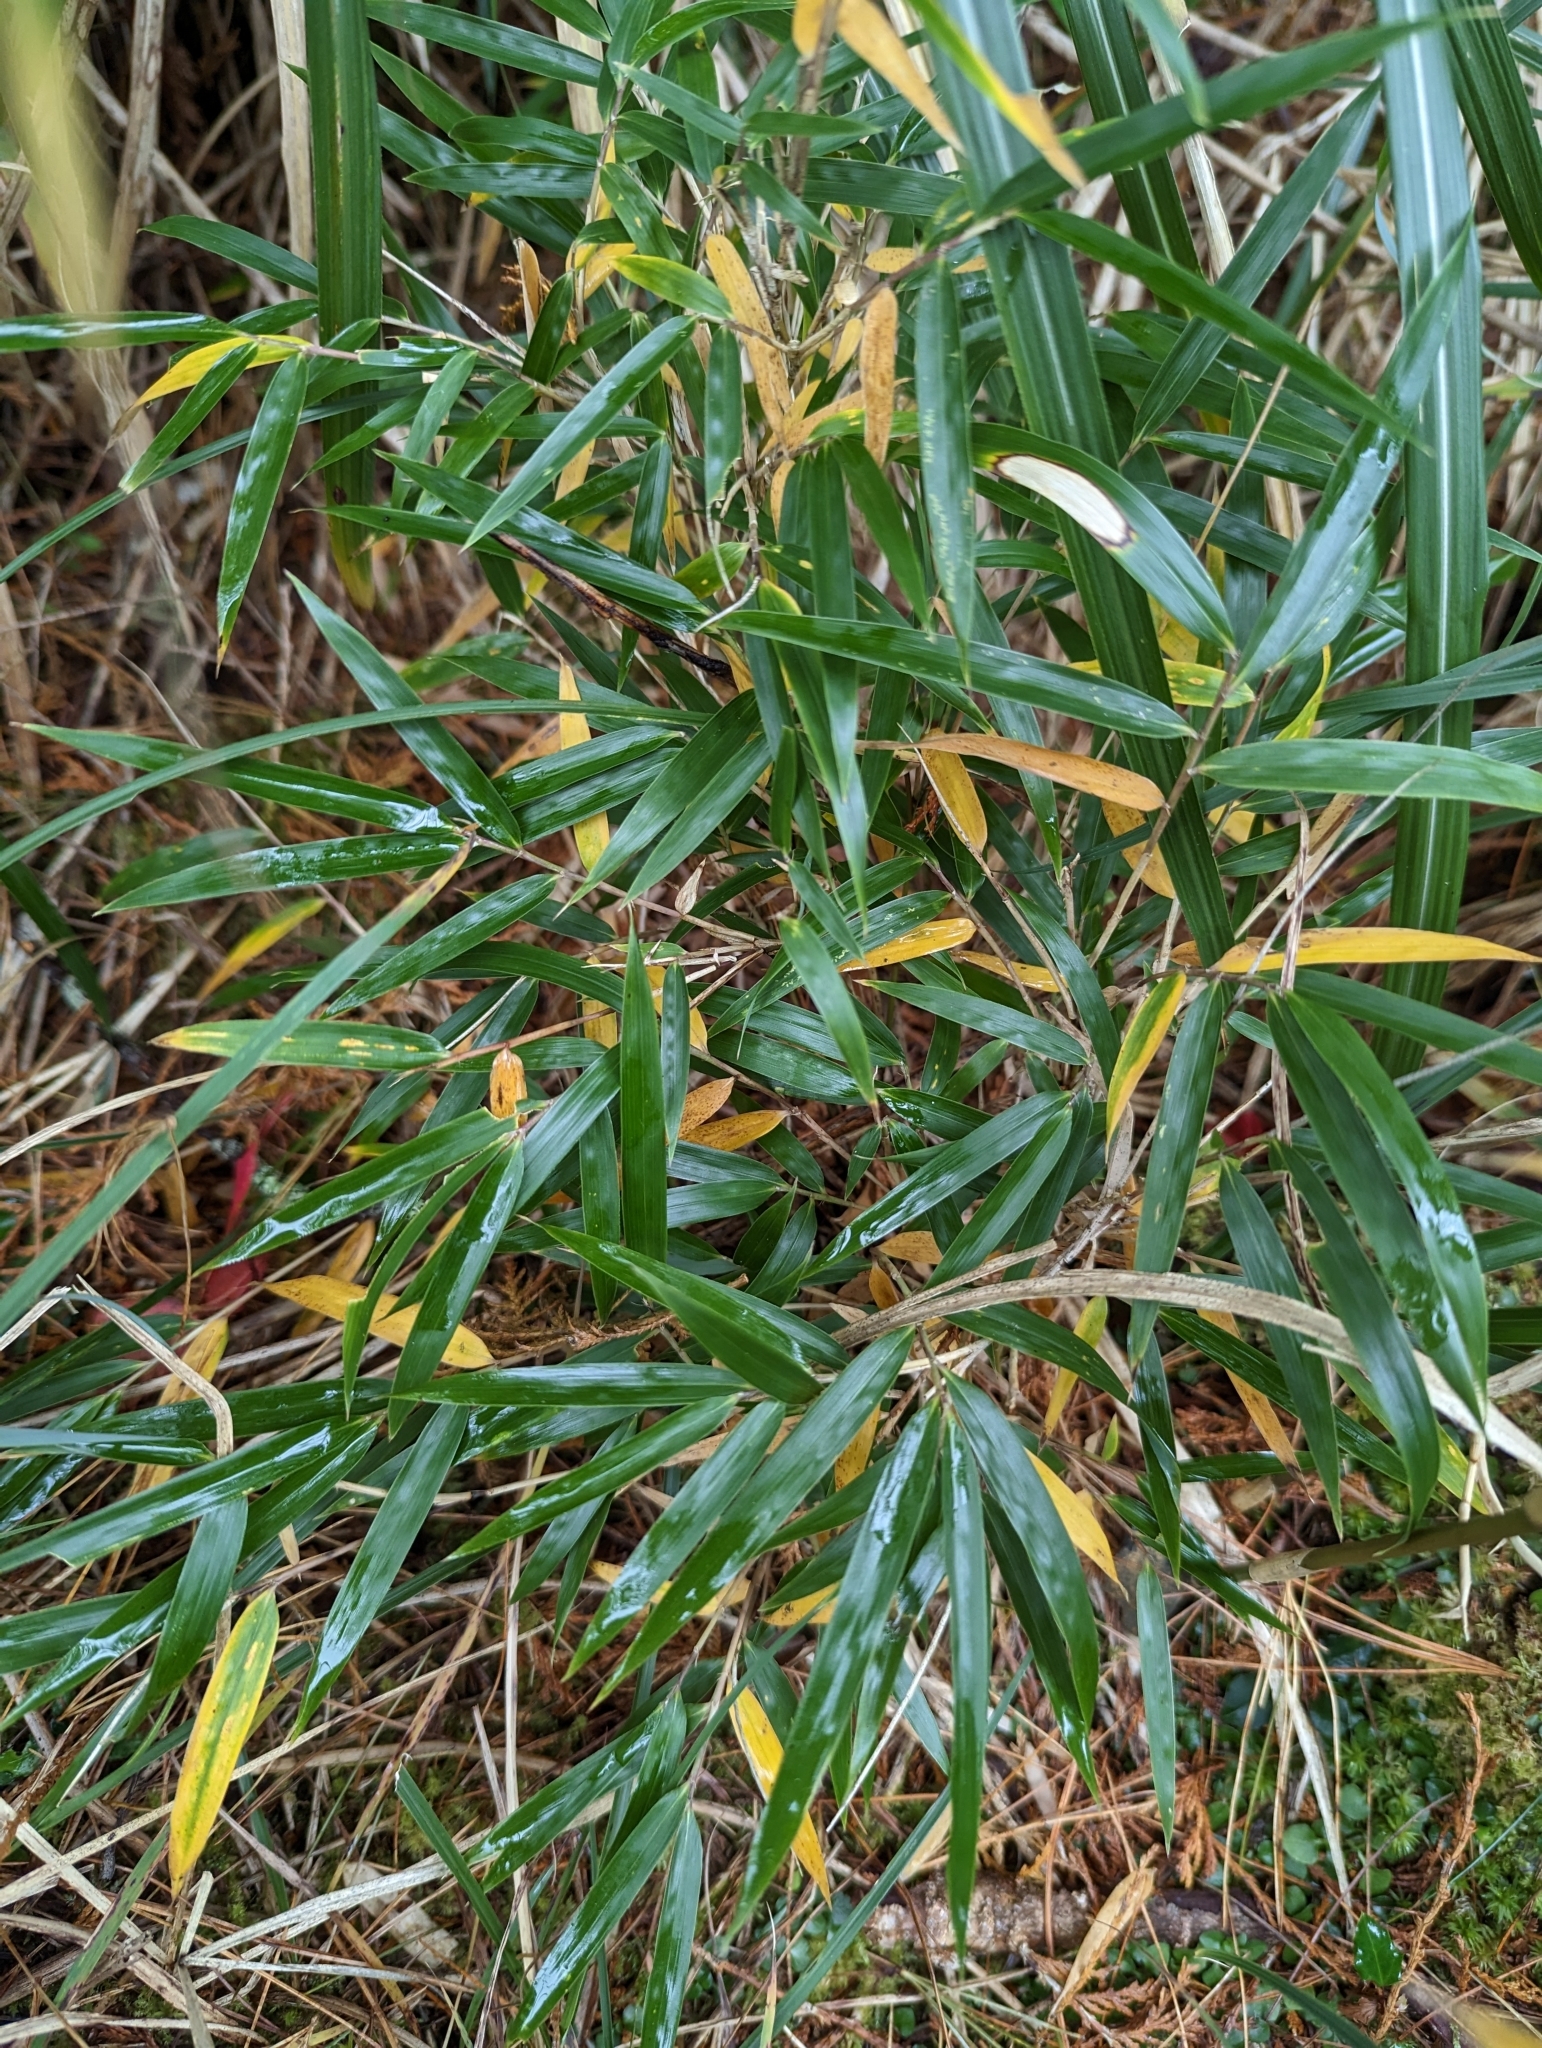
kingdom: Plantae
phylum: Tracheophyta
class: Liliopsida
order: Poales
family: Poaceae
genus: Yushania
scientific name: Yushania niitakayamensis
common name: Yushan cane
